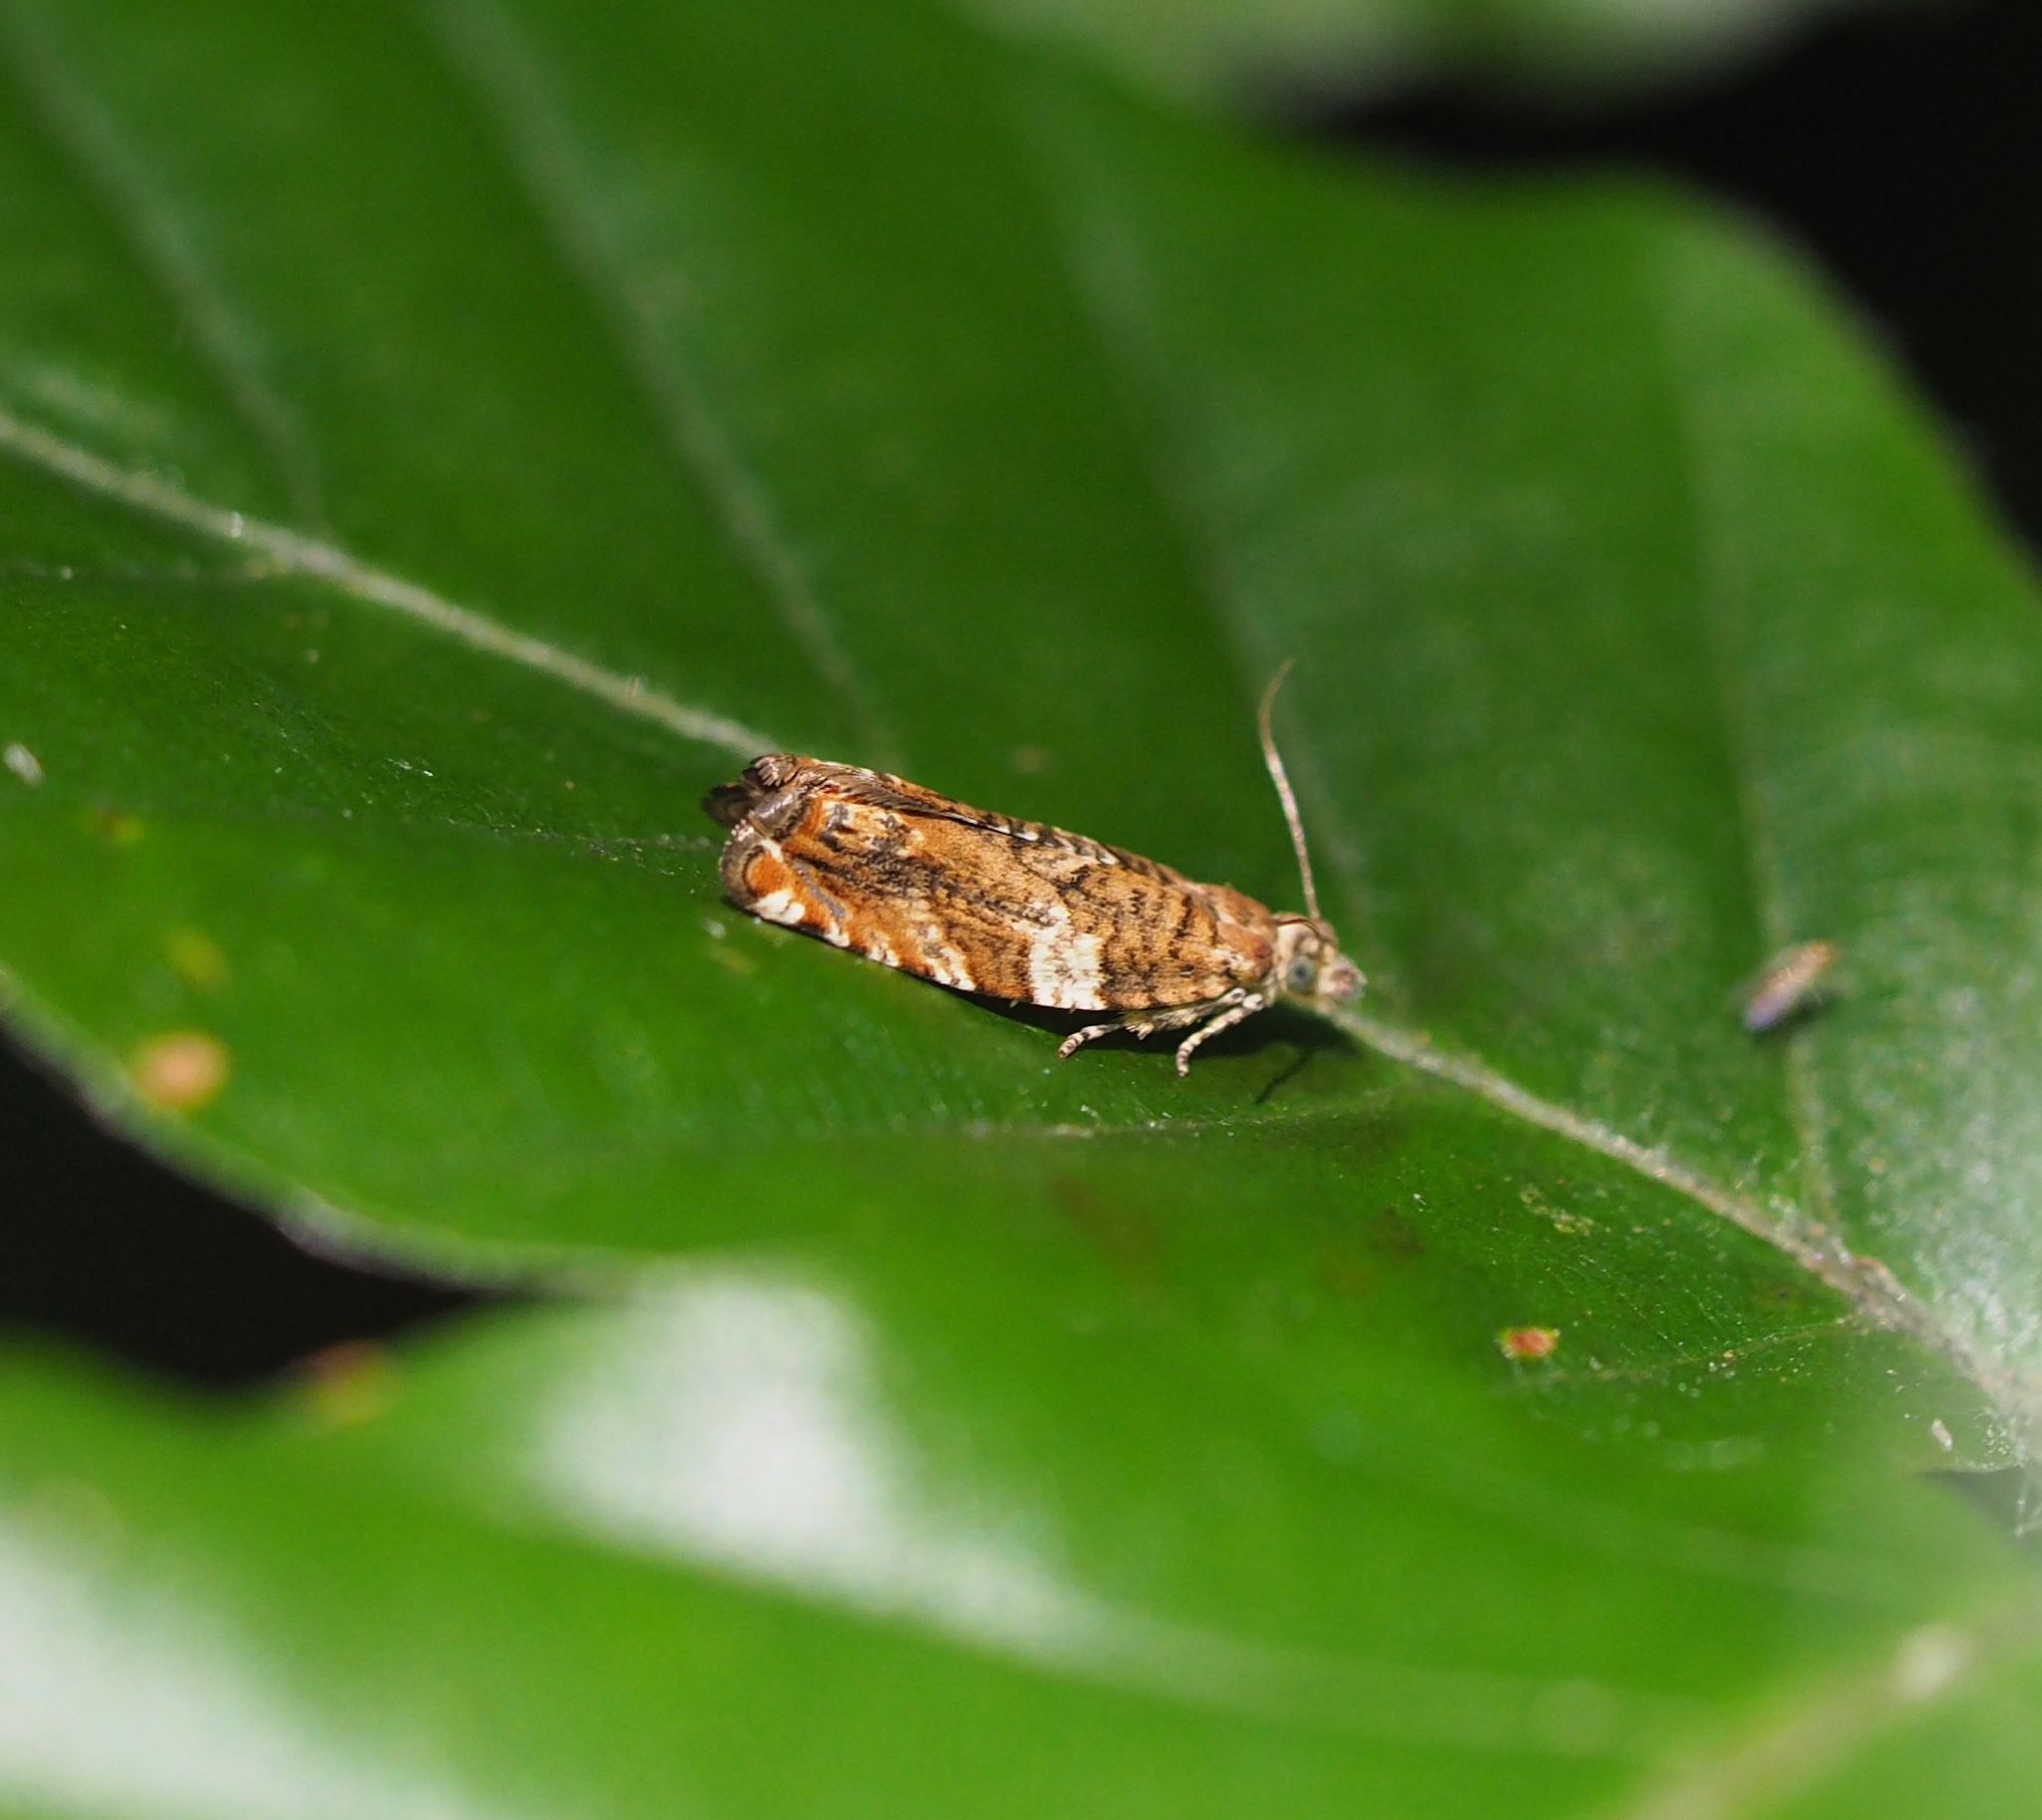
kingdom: Animalia
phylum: Arthropoda
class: Insecta
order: Lepidoptera
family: Tortricidae
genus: Epinotia
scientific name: Epinotia abbreviana
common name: Tortricid moth
